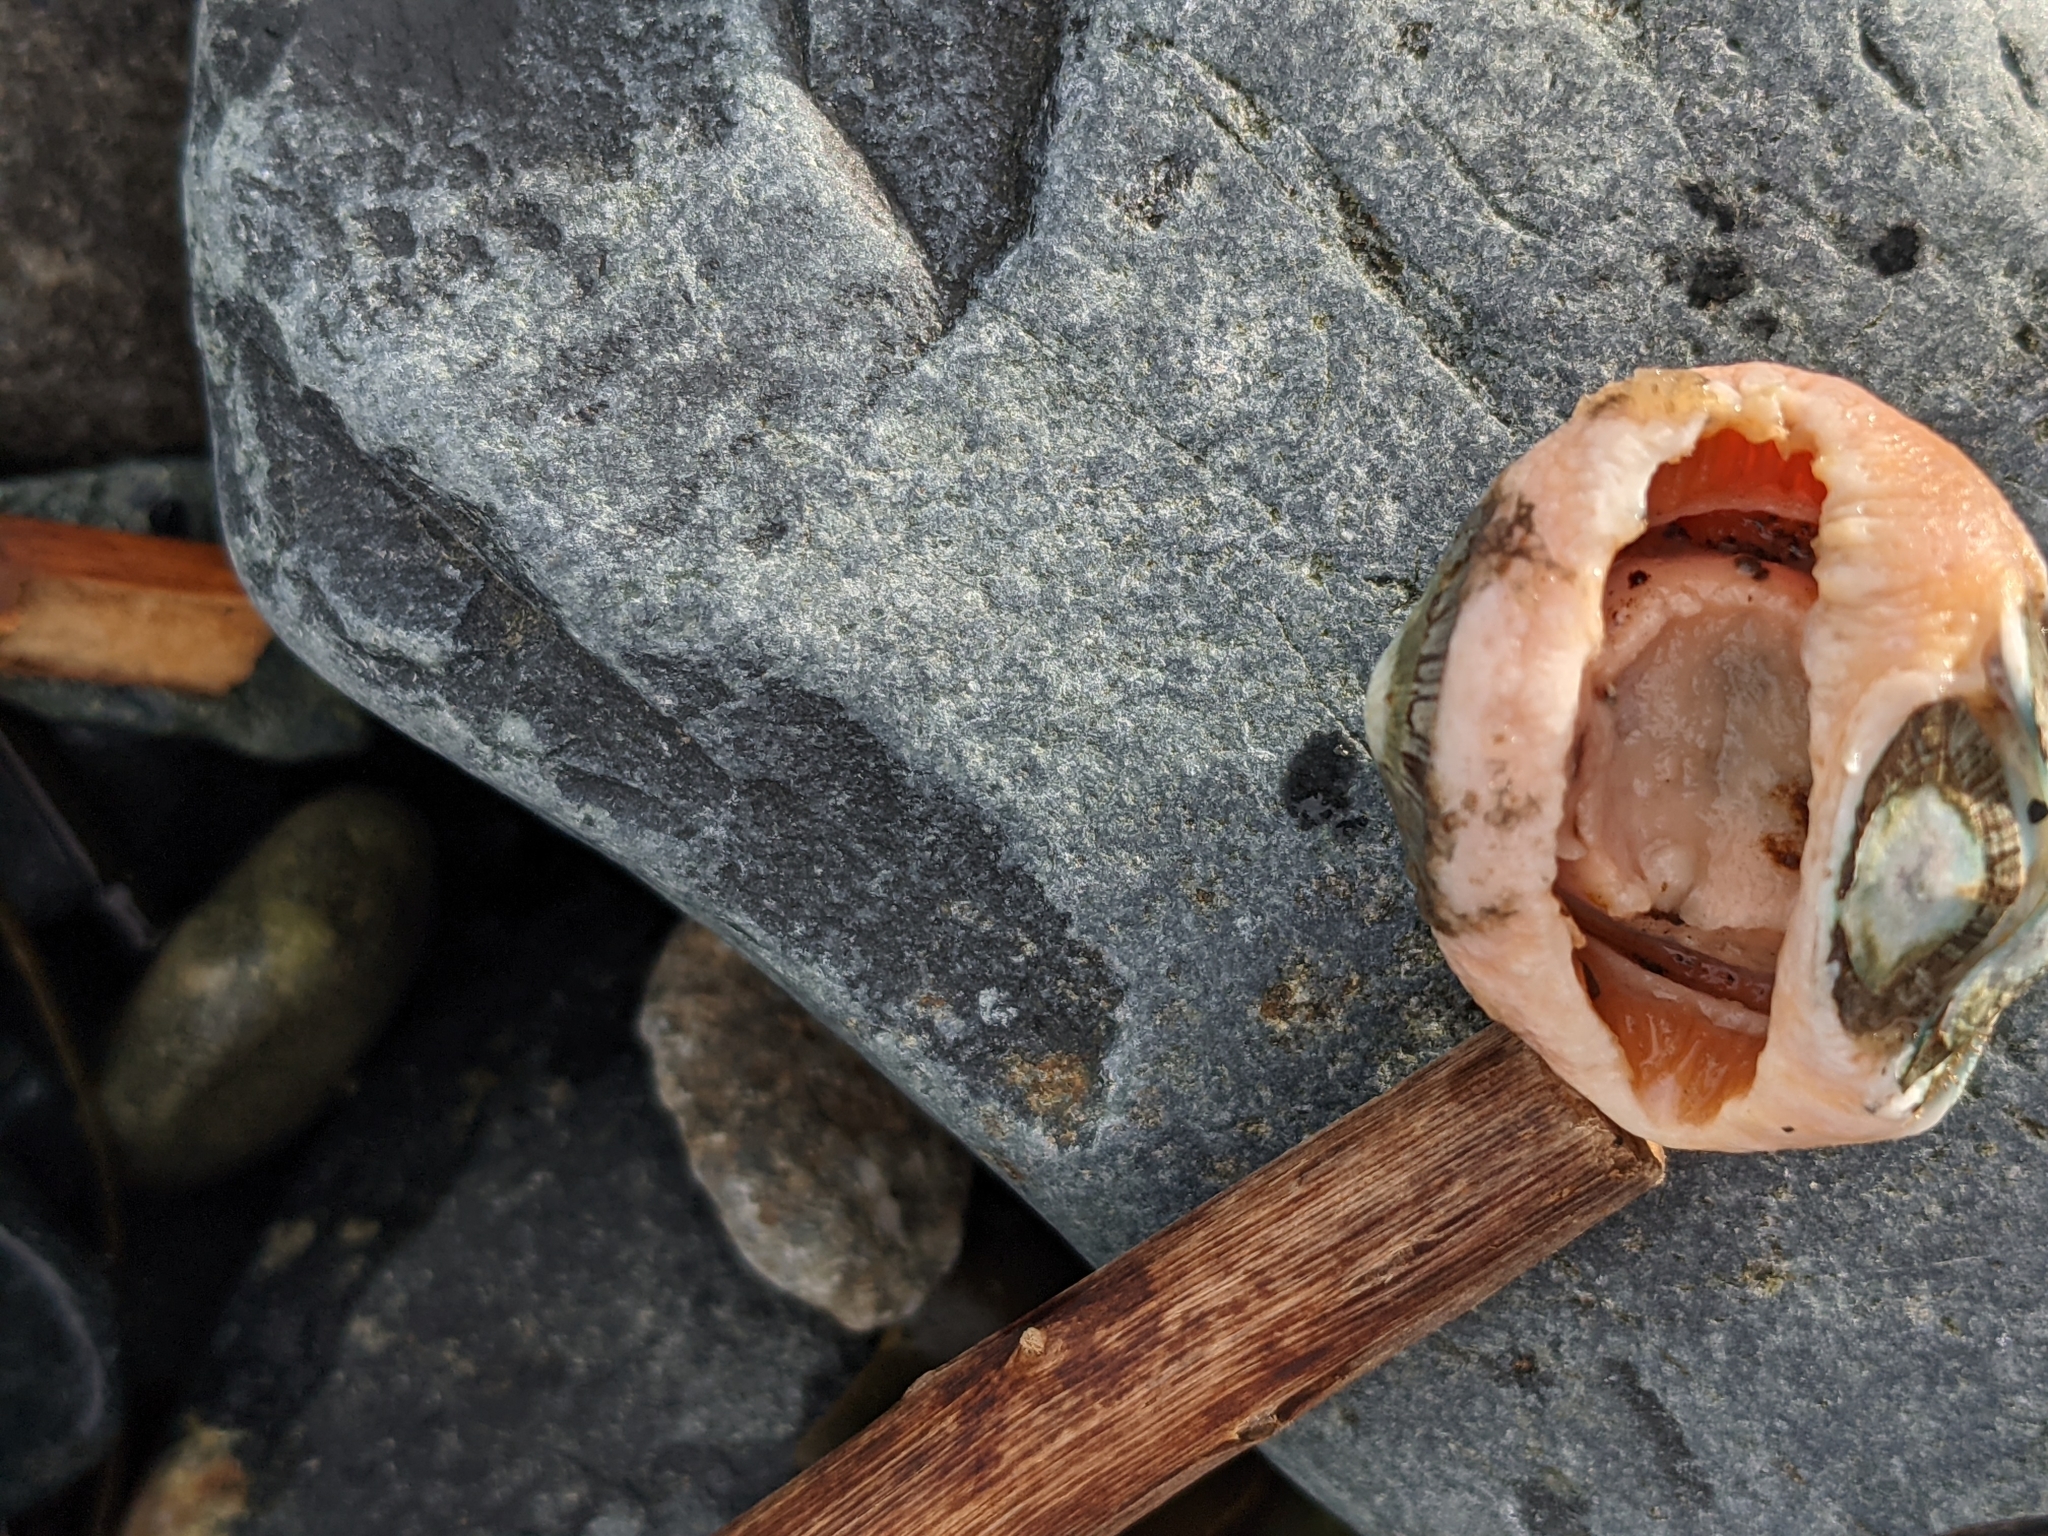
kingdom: Animalia
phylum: Mollusca
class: Polyplacophora
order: Chitonida
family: Mopaliidae
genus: Mopalia
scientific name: Mopalia lignosa
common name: Woody chiton
